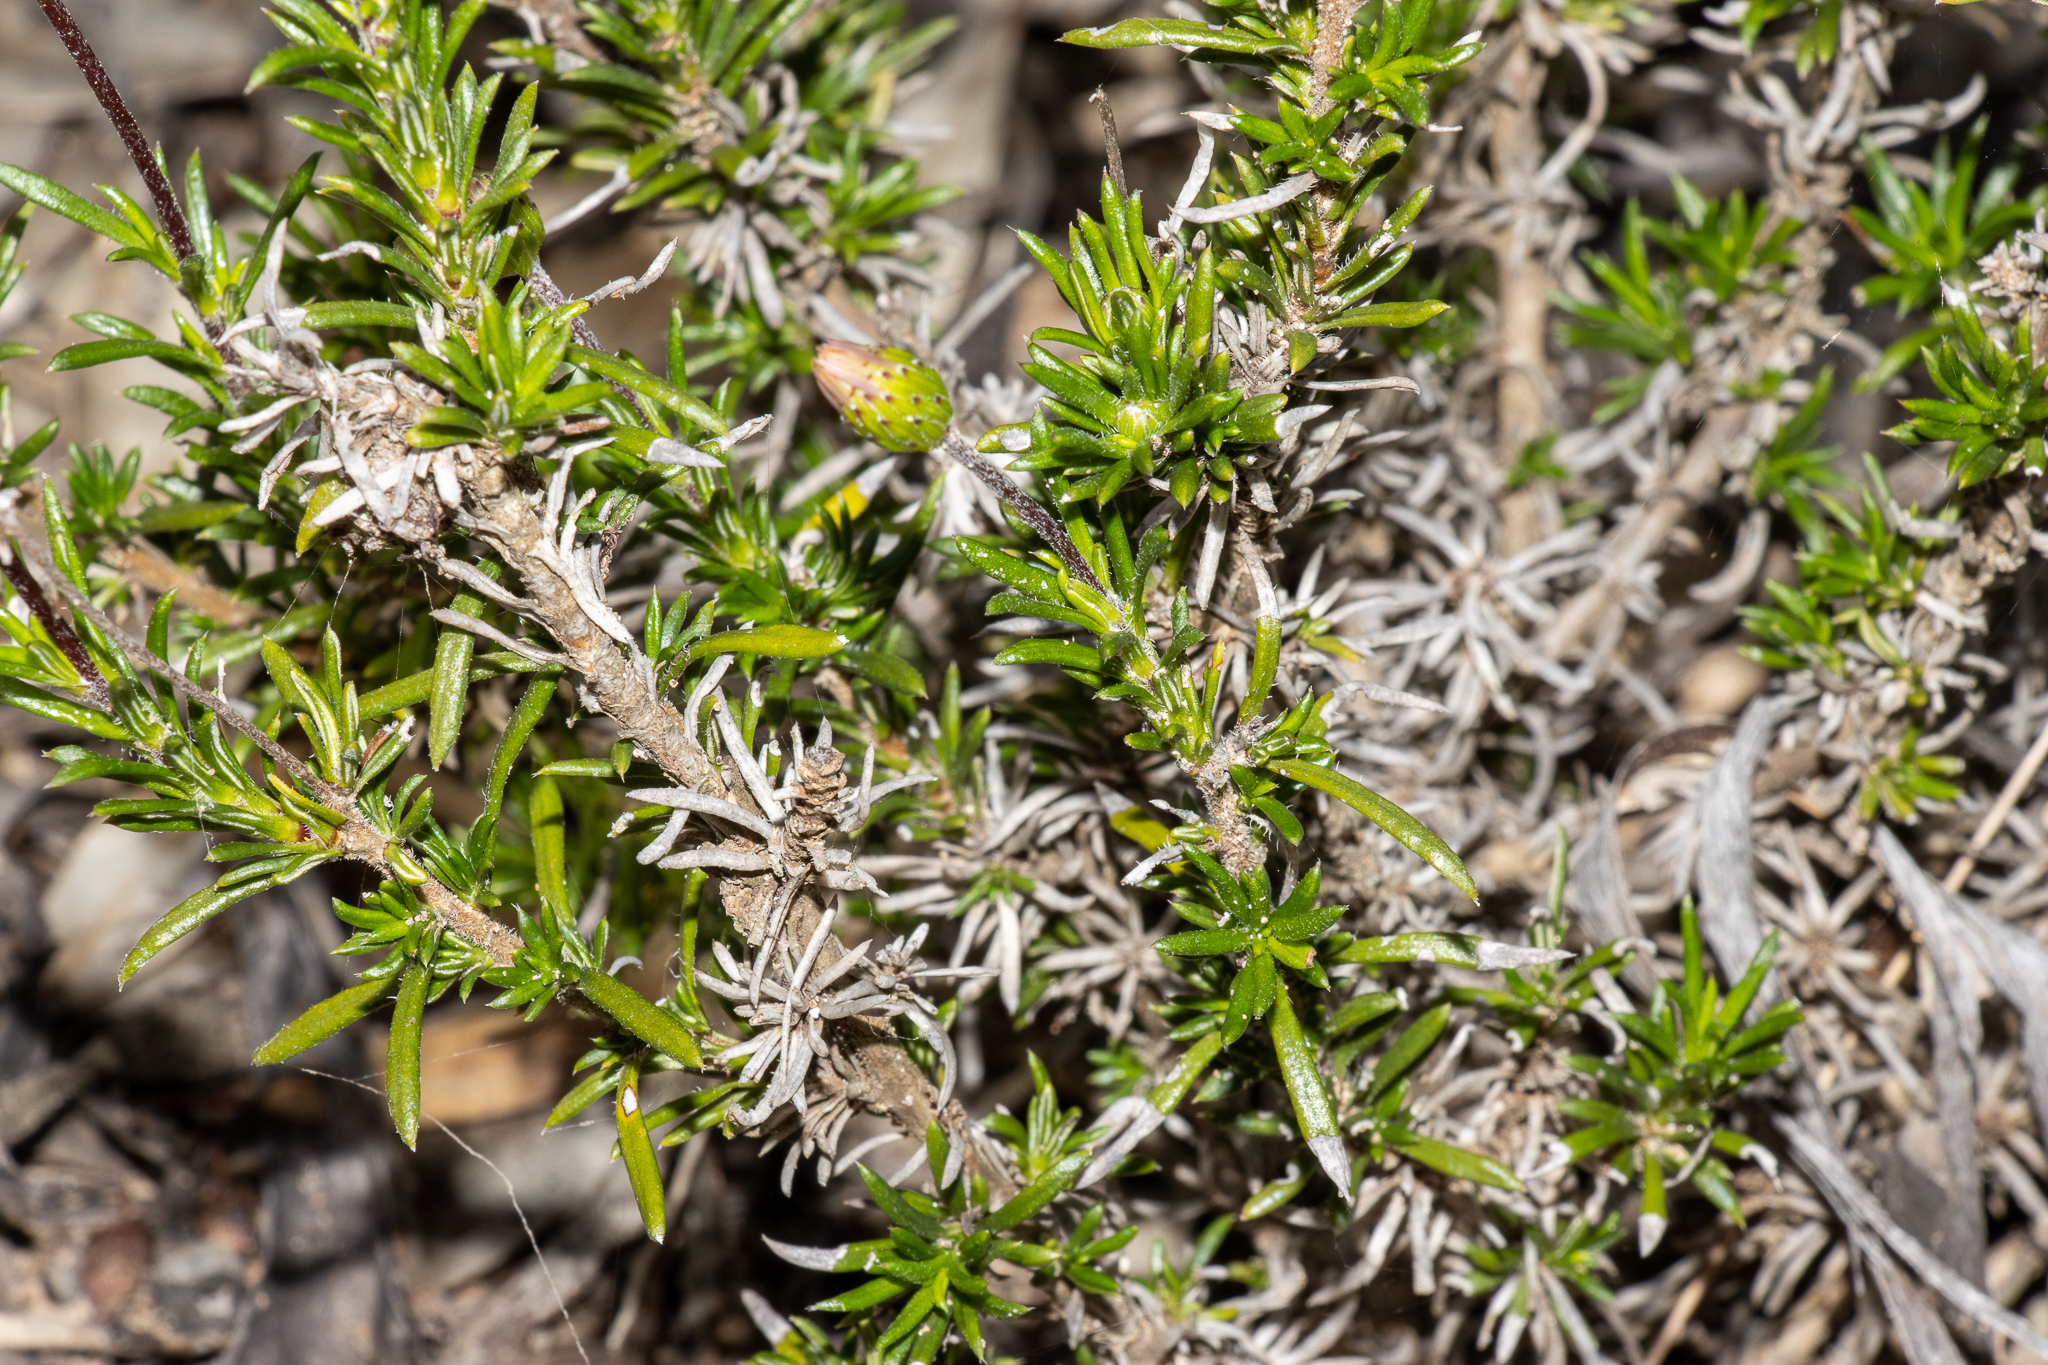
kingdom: Plantae
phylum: Tracheophyta
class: Magnoliopsida
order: Asterales
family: Asteraceae
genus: Olearia
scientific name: Olearia ciliata
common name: Fringed daisybush
